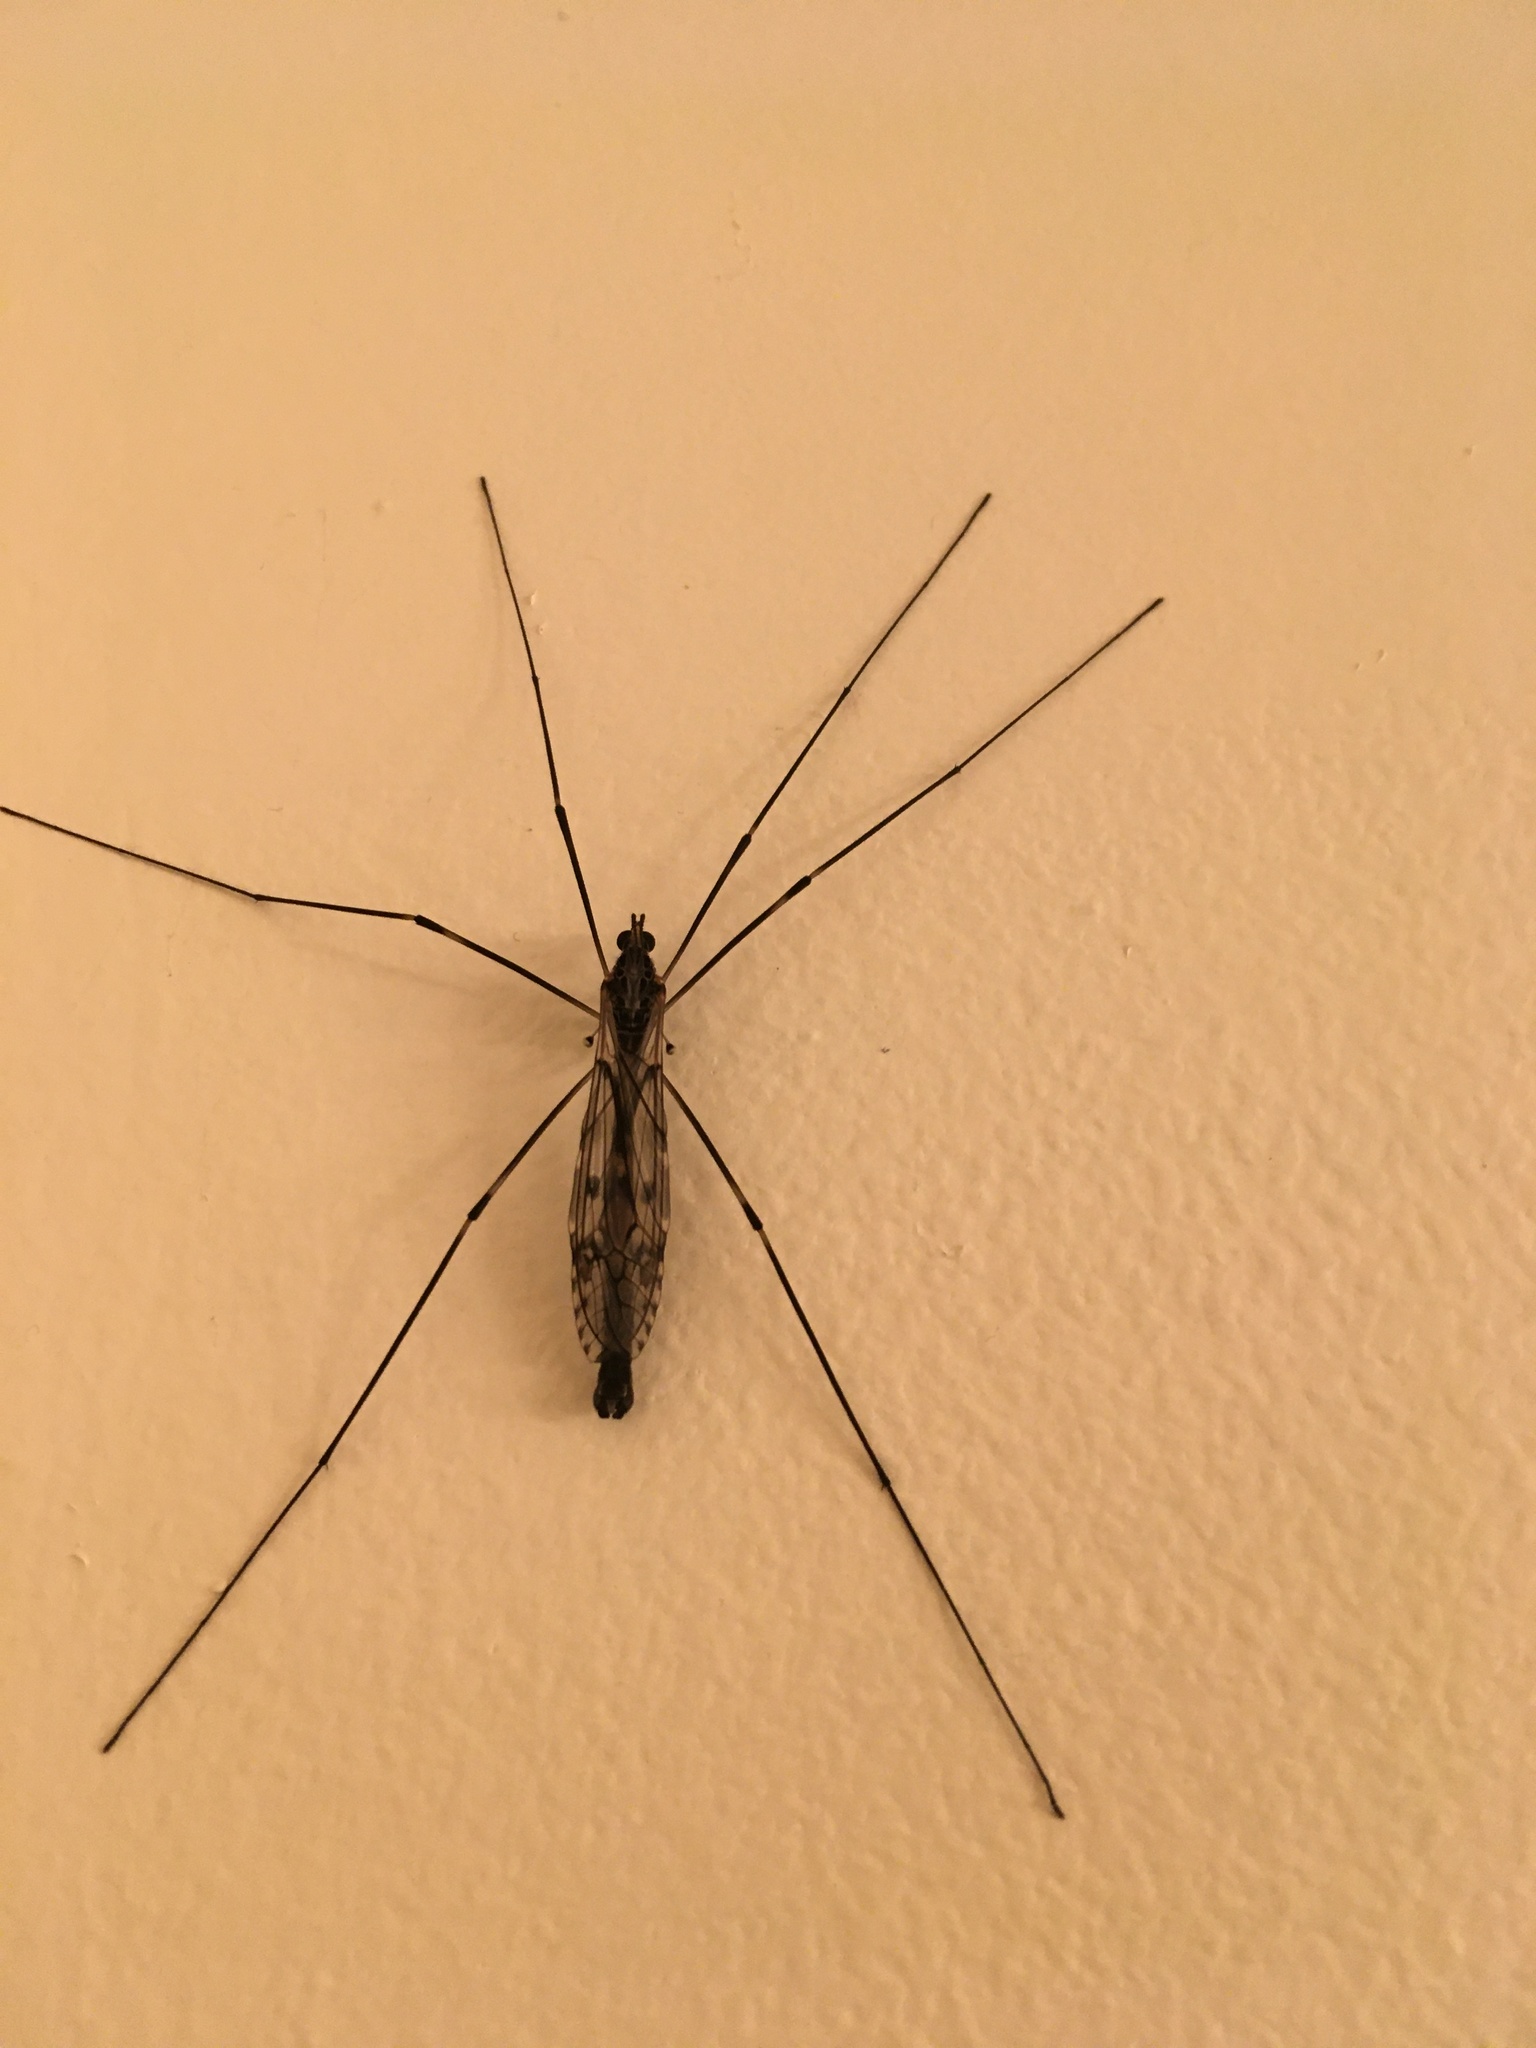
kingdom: Animalia
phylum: Arthropoda
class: Insecta
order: Diptera
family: Tipulidae
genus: Tipula
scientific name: Tipula abdominalis
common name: Giant crane fly
